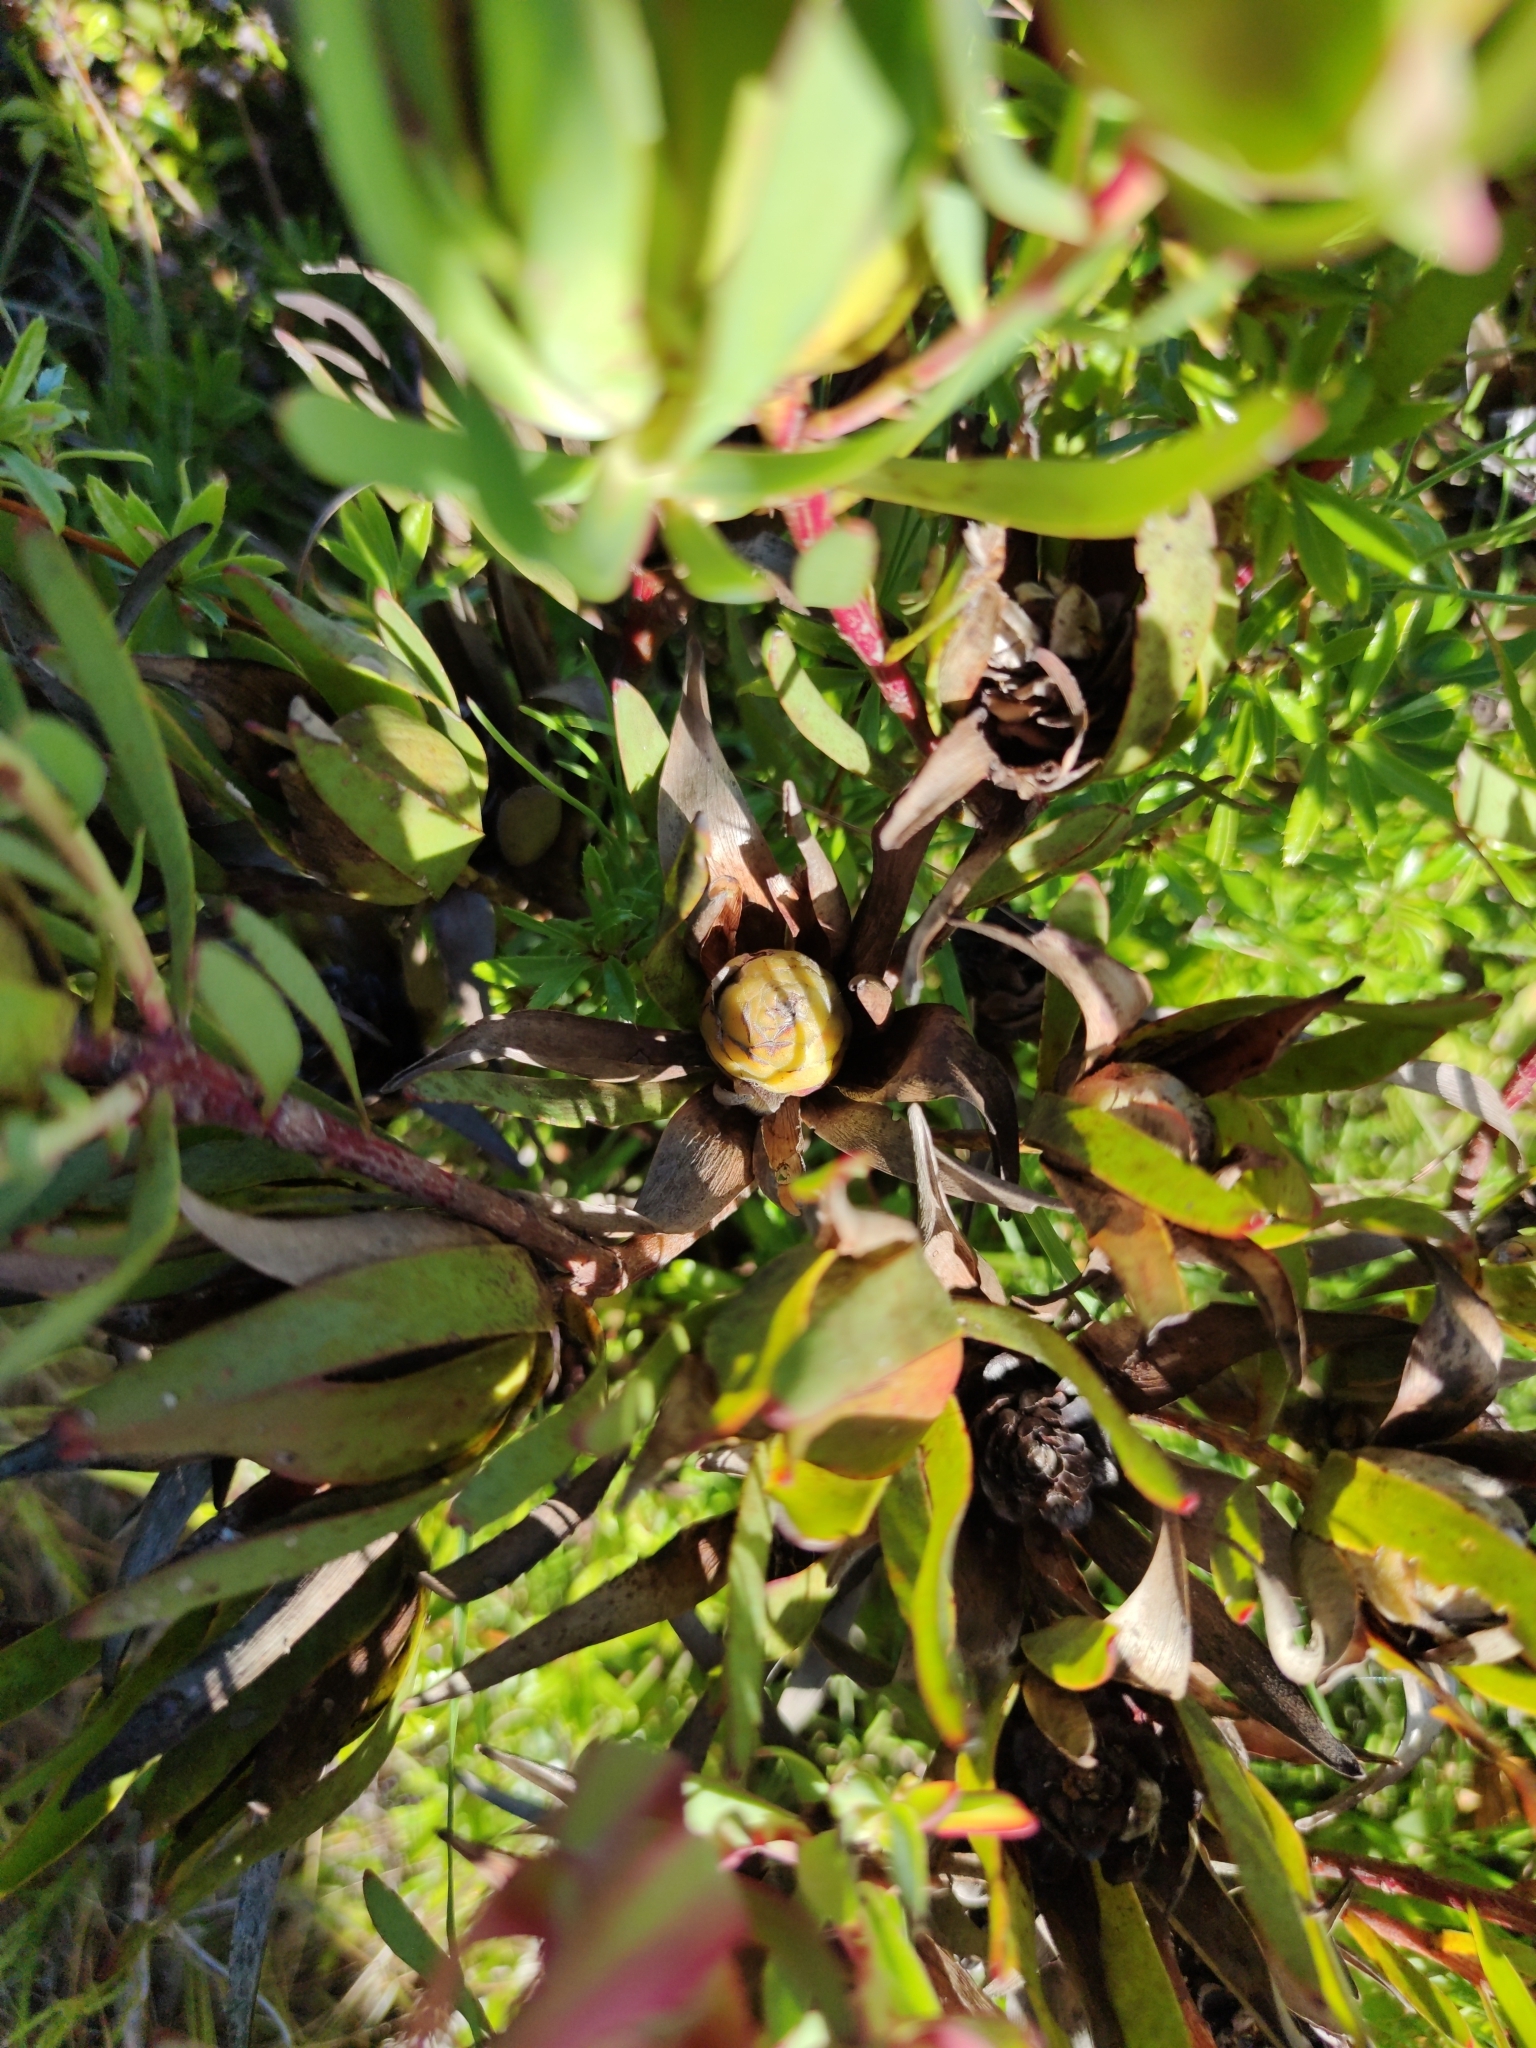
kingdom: Plantae
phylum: Tracheophyta
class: Magnoliopsida
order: Proteales
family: Proteaceae
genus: Leucadendron
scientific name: Leucadendron salignum
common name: Common sunshine conebush
